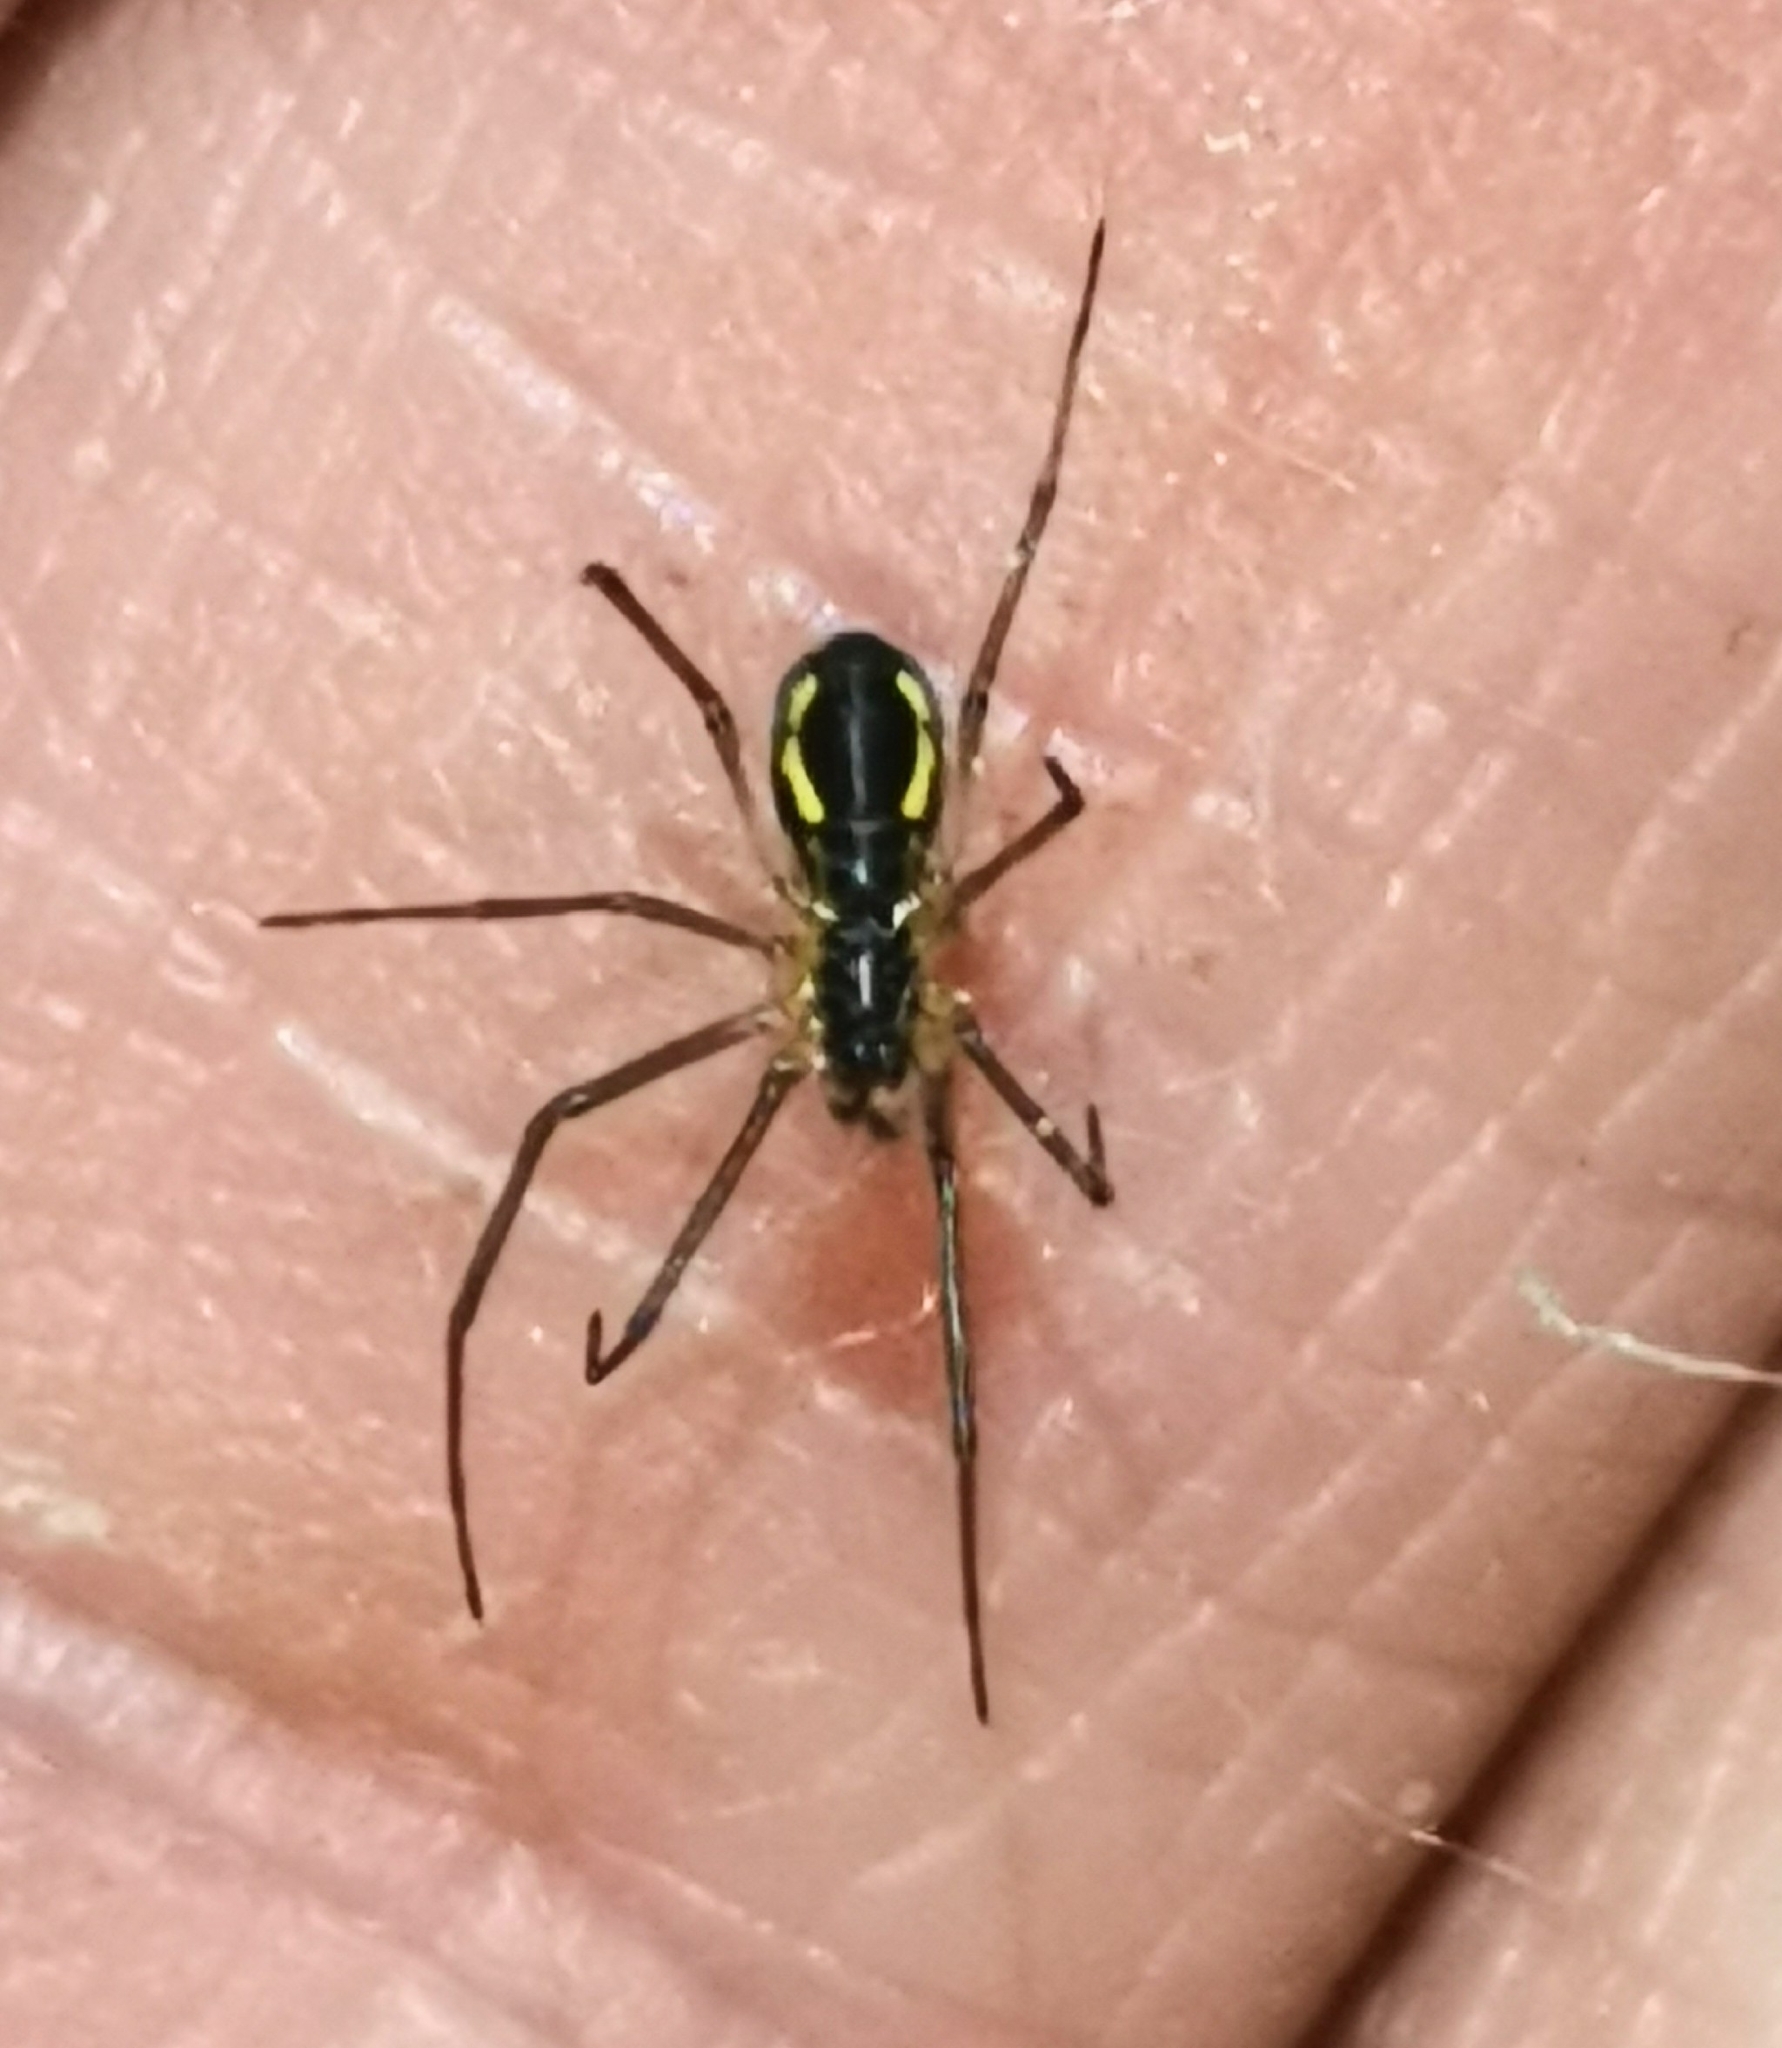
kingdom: Animalia
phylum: Arthropoda
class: Arachnida
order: Araneae
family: Linyphiidae
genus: Neriene
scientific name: Neriene radiata
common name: Filmy dome spider
